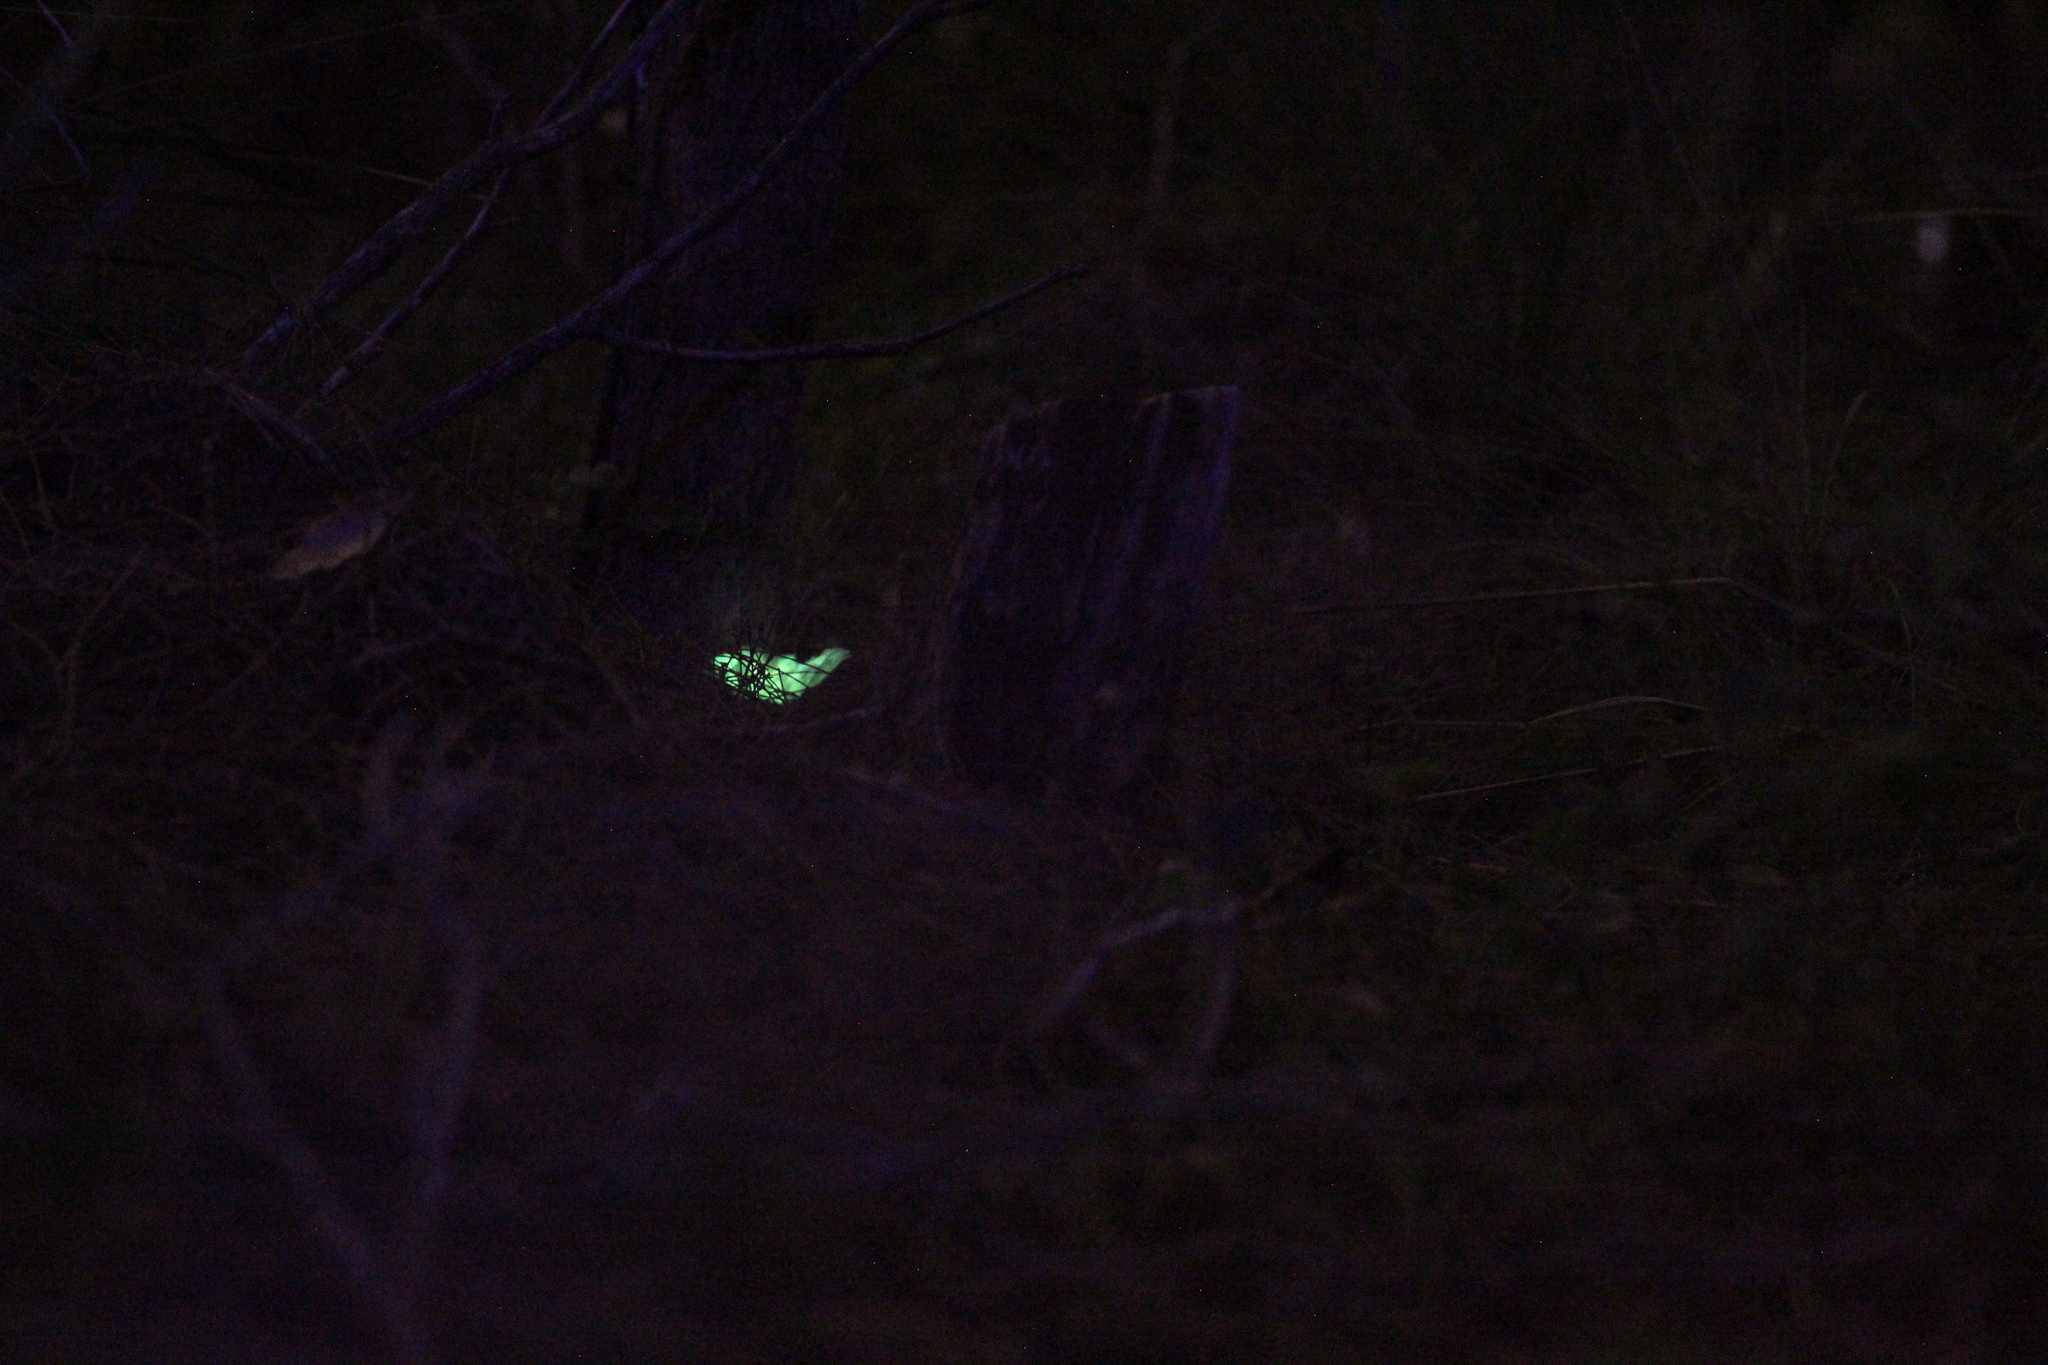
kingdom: Fungi
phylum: Basidiomycota
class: Agaricomycetes
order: Agaricales
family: Omphalotaceae
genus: Omphalotus
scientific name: Omphalotus nidiformis
